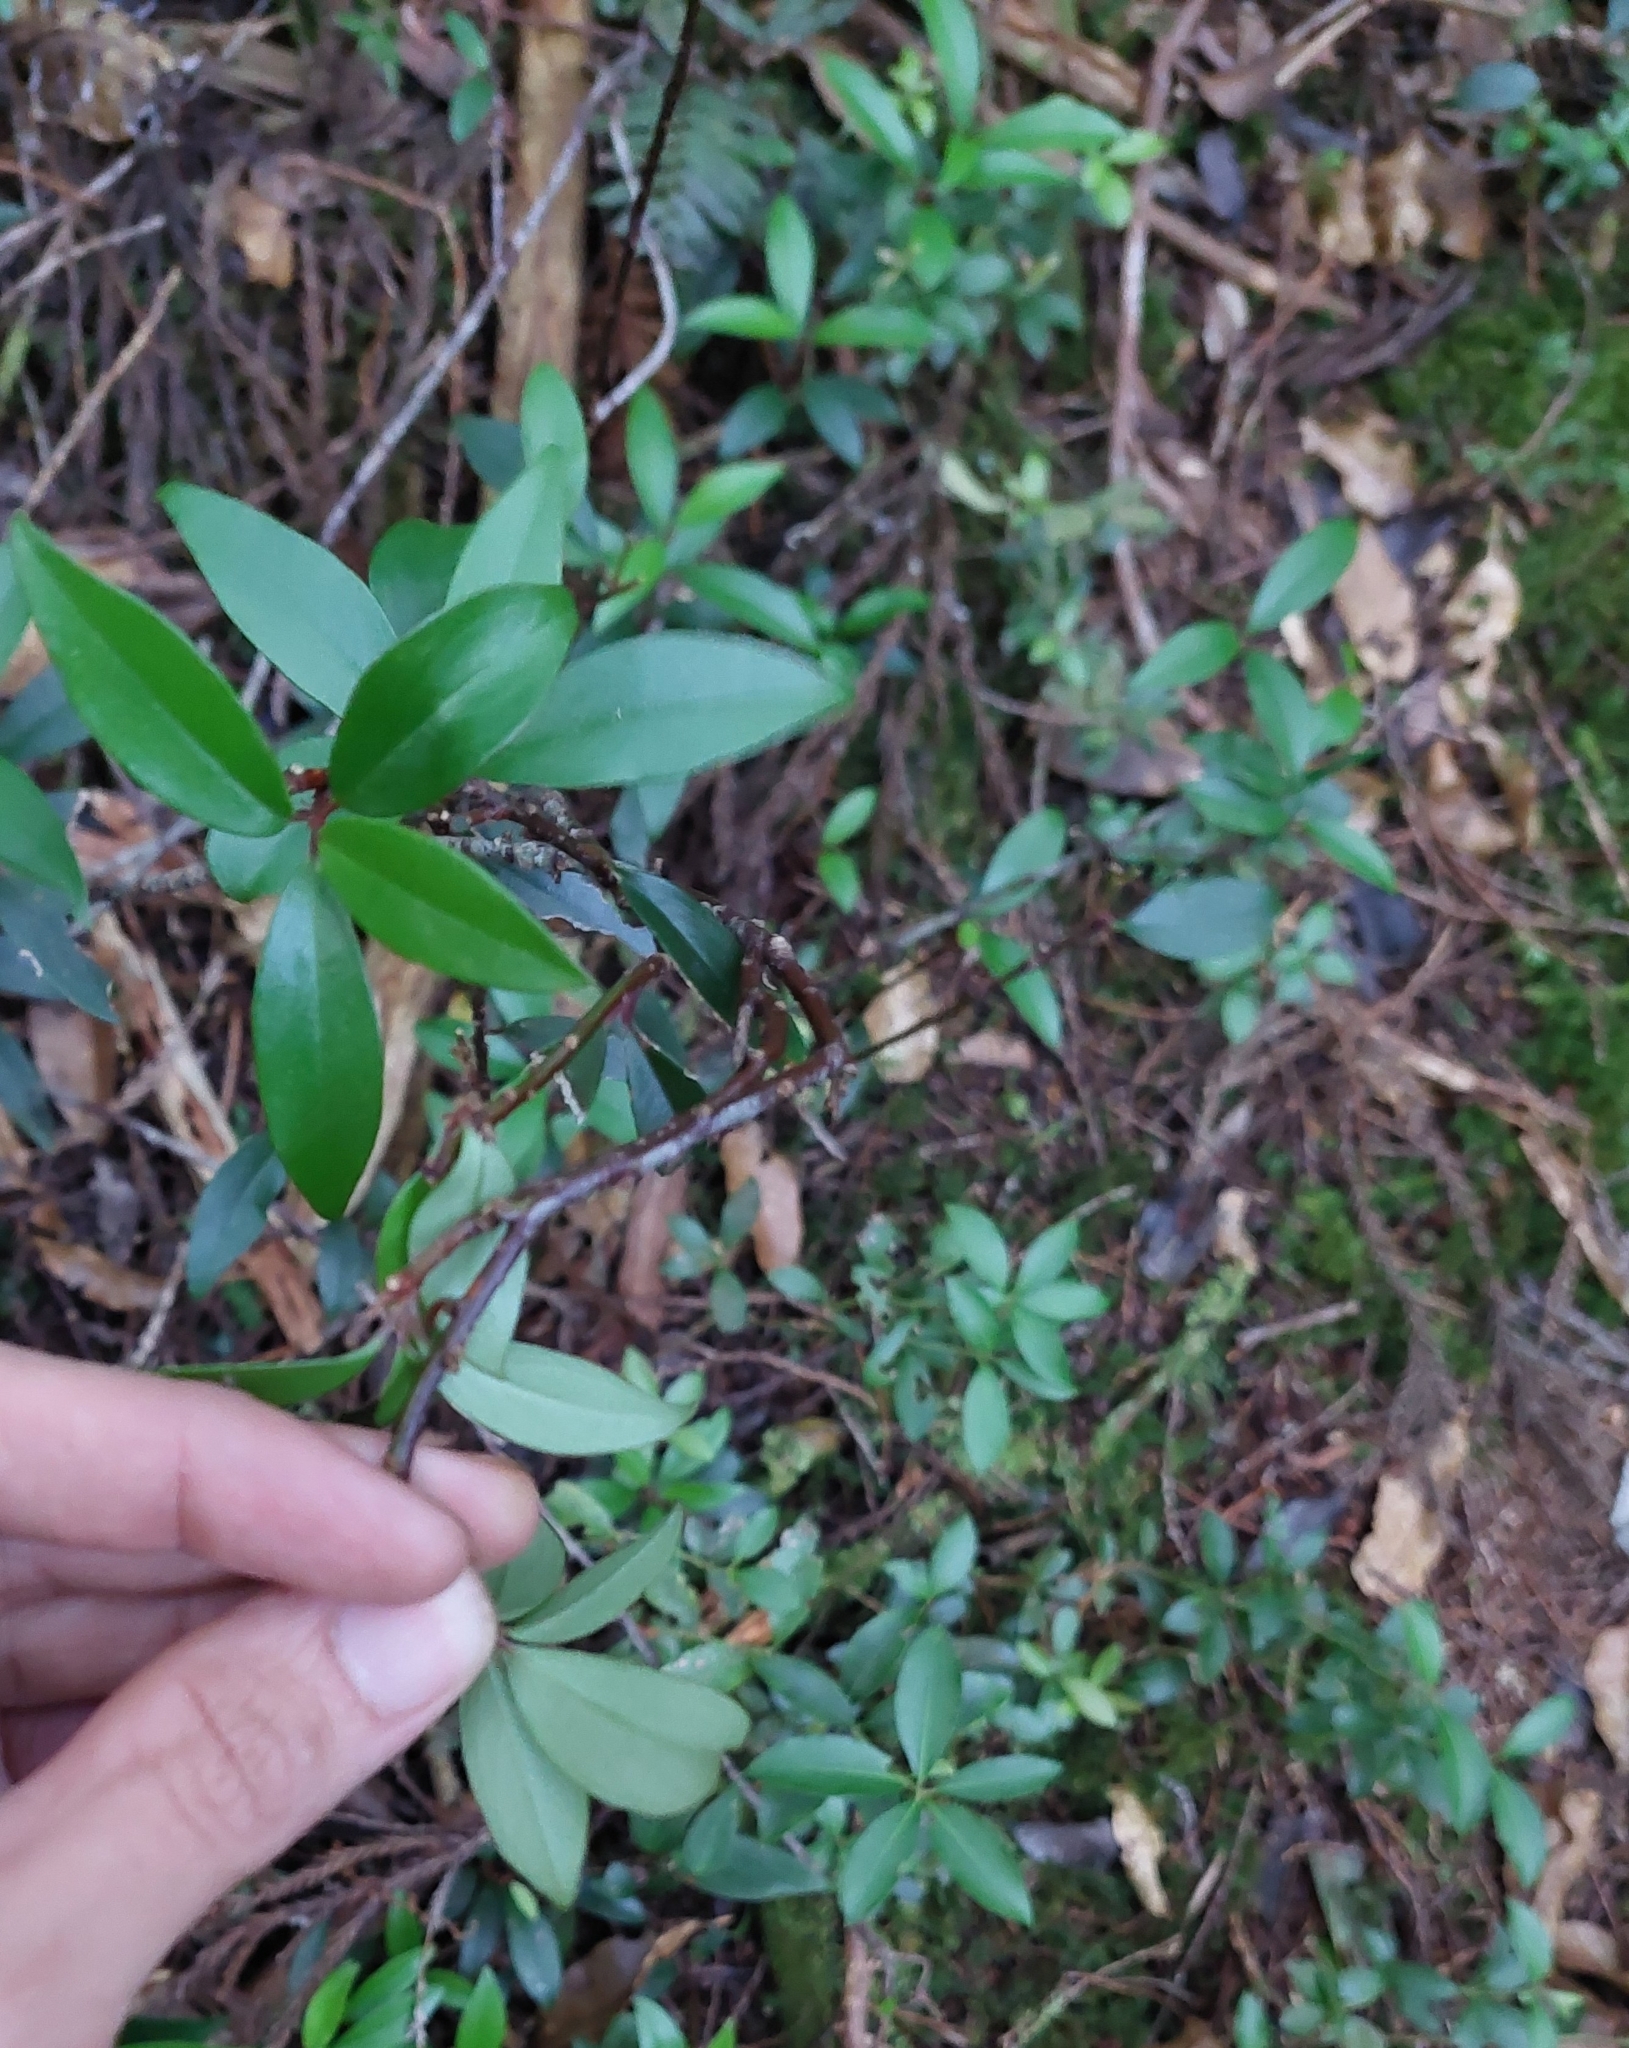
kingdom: Plantae
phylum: Tracheophyta
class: Magnoliopsida
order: Ericales
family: Primulaceae
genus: Myrsine
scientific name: Myrsine stolonifera
